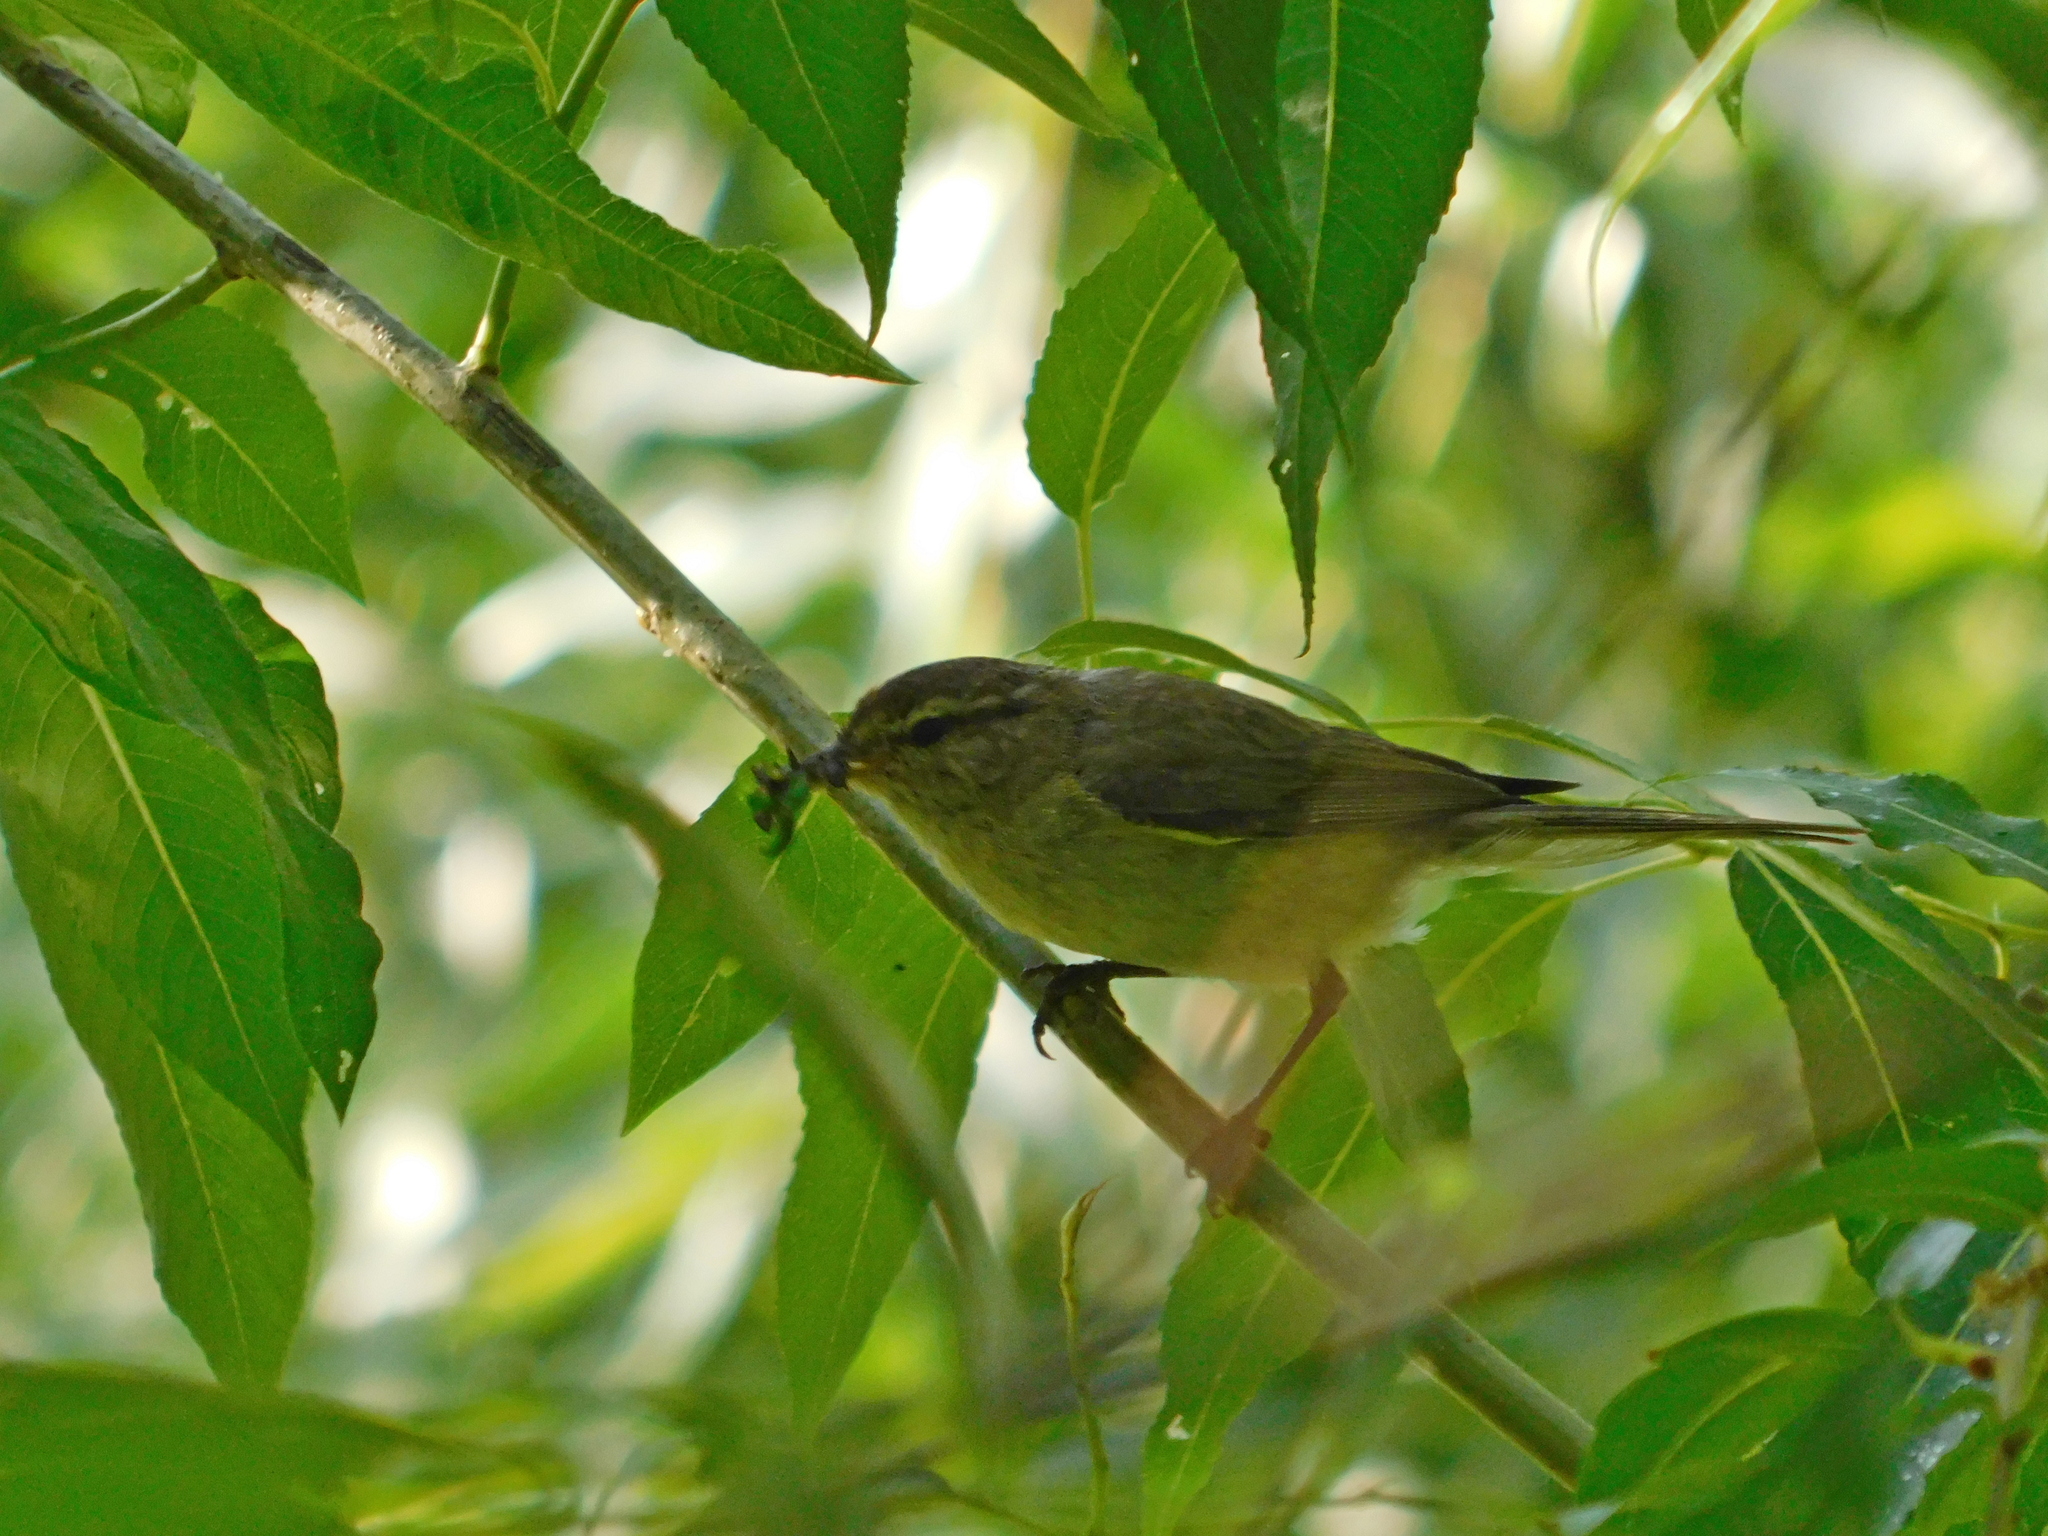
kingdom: Animalia
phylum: Chordata
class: Aves
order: Passeriformes
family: Phylloscopidae
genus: Phylloscopus
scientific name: Phylloscopus trochilus
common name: Willow warbler
